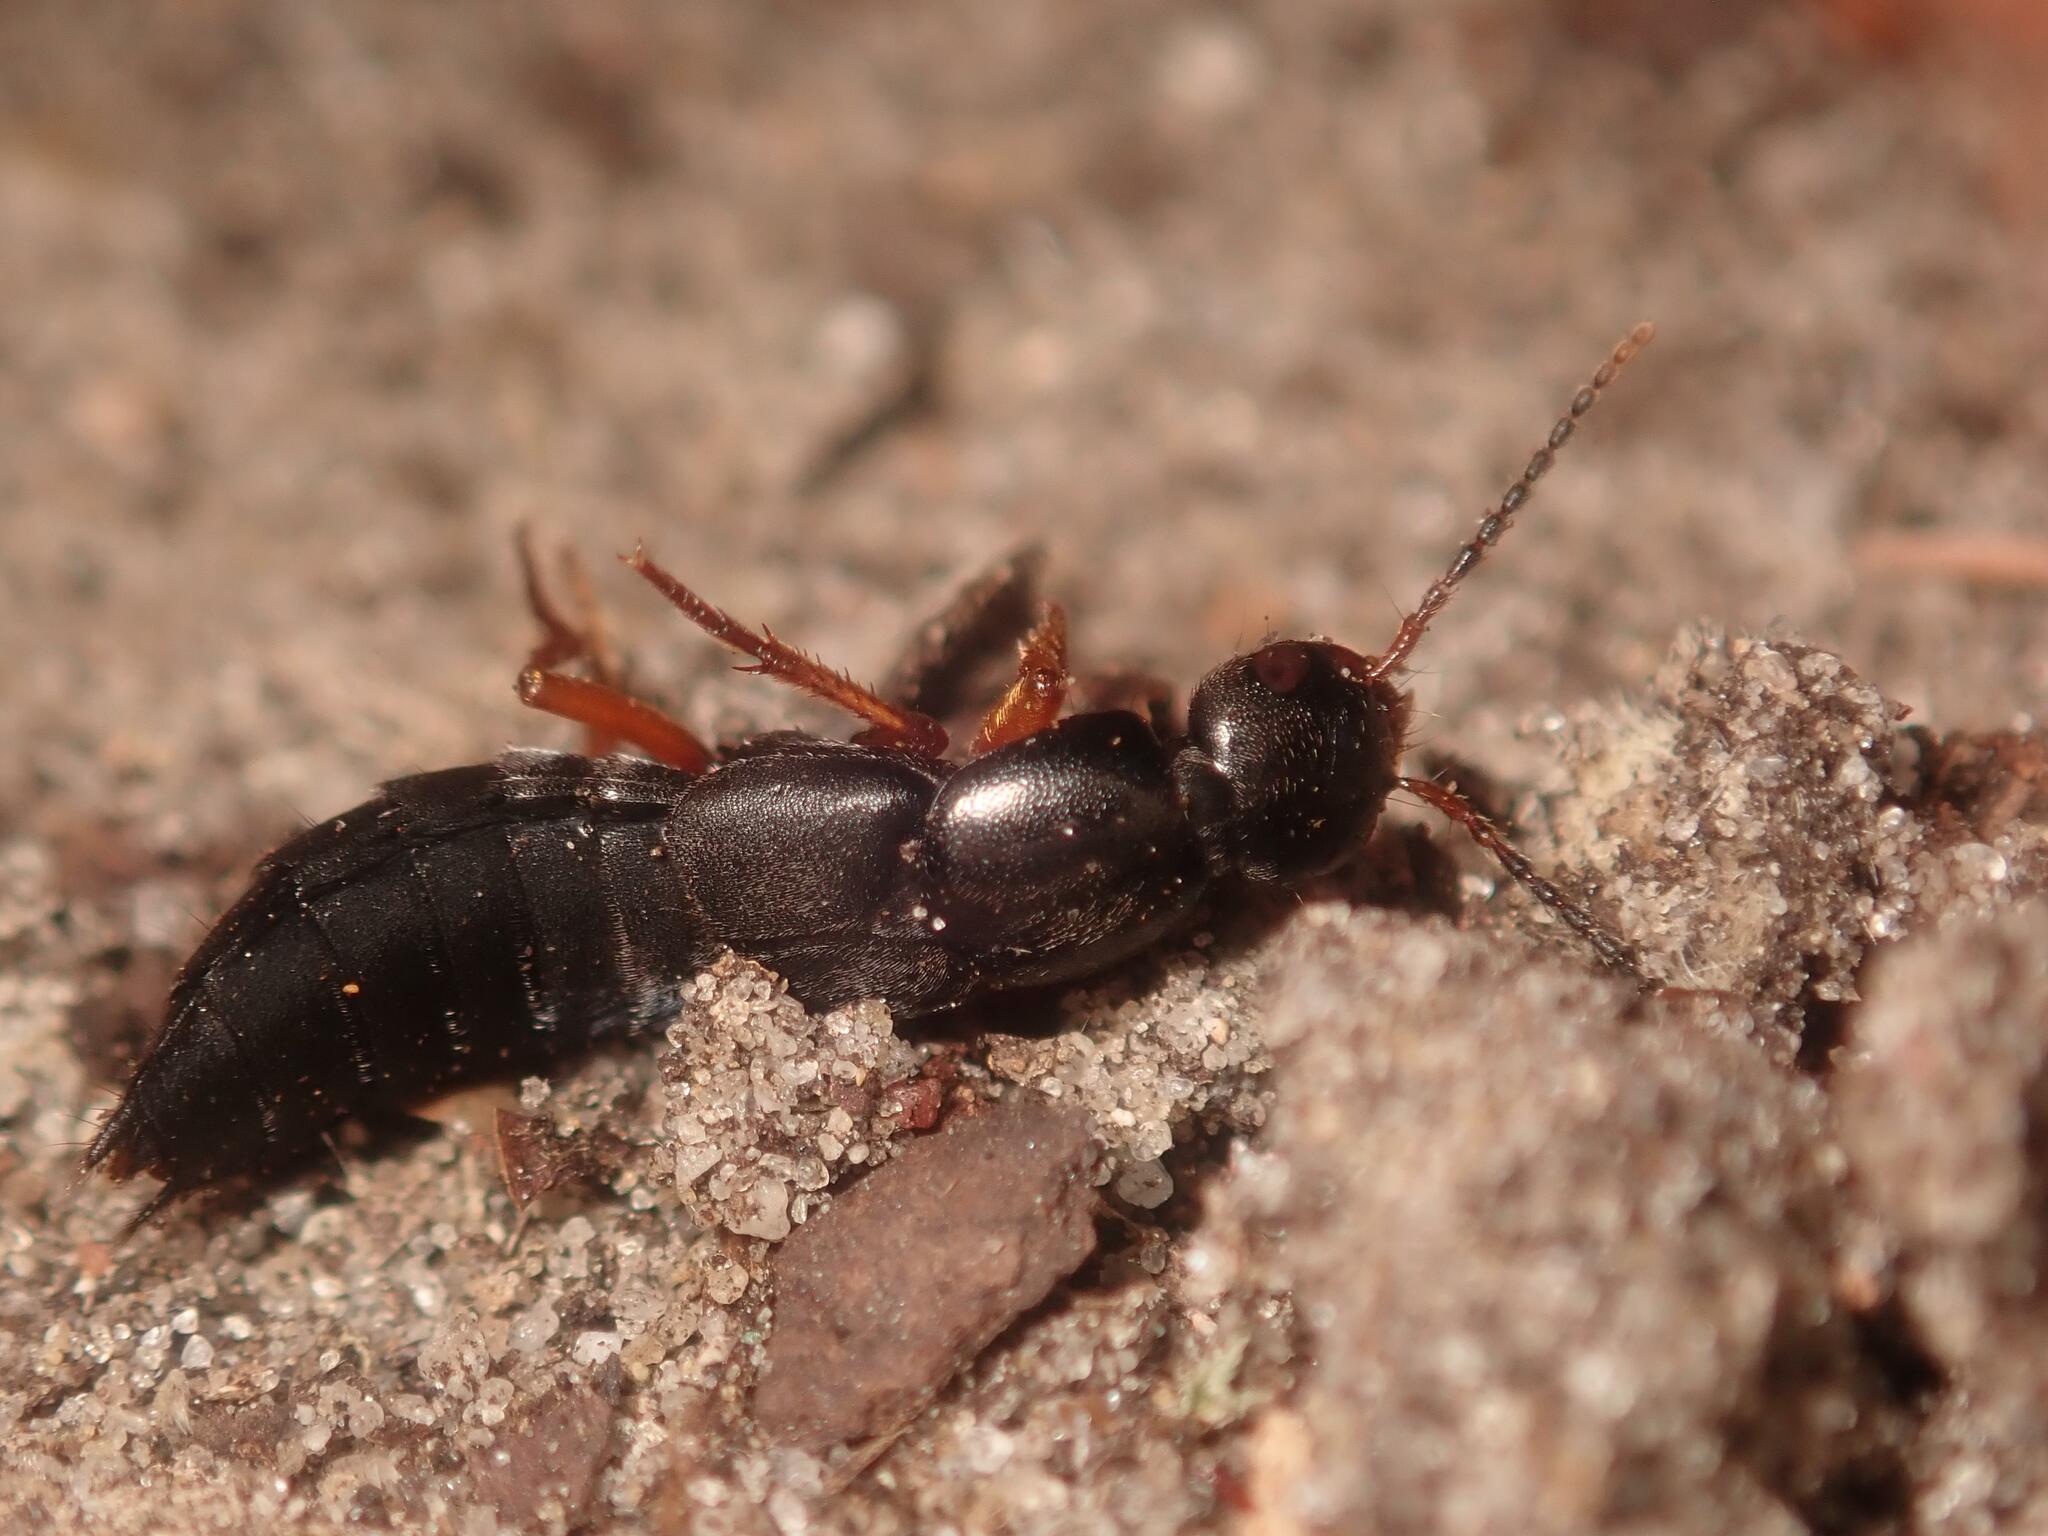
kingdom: Animalia
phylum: Arthropoda
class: Insecta
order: Coleoptera
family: Staphylinidae
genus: Ocypus
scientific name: Ocypus brunnipes
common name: Rove beetle
